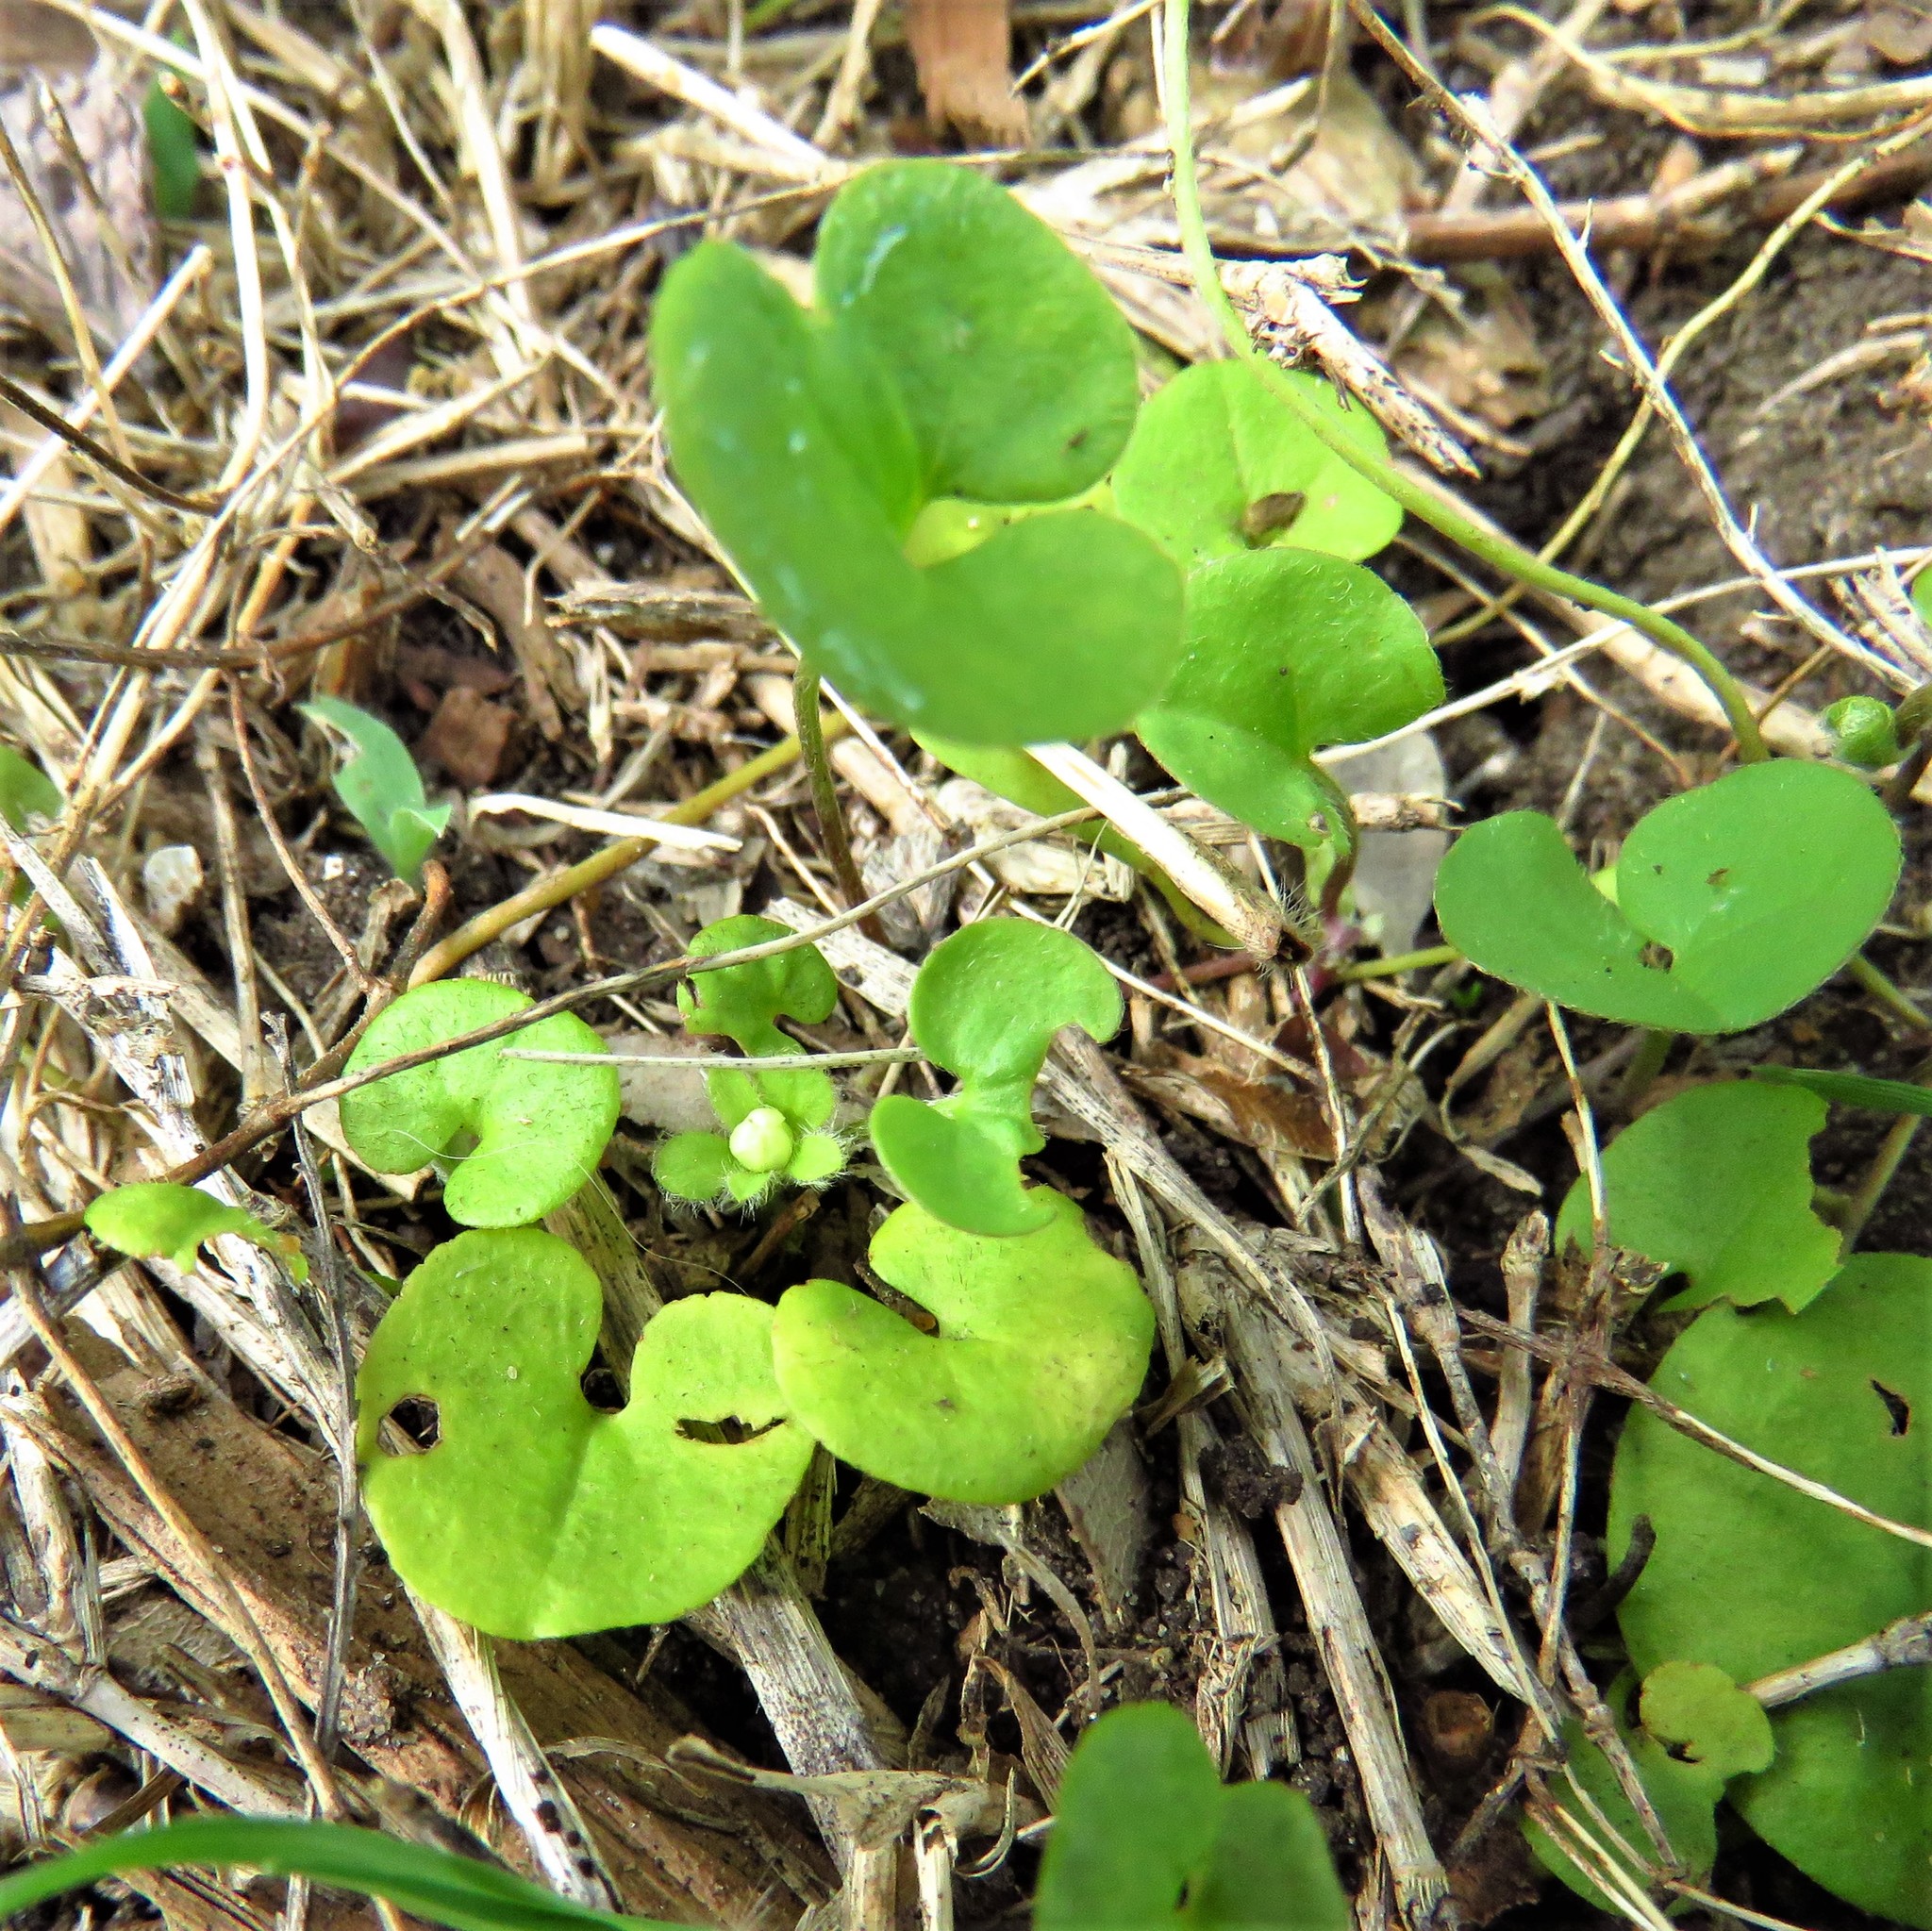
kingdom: Plantae
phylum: Tracheophyta
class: Magnoliopsida
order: Solanales
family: Convolvulaceae
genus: Dichondra
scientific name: Dichondra carolinensis
